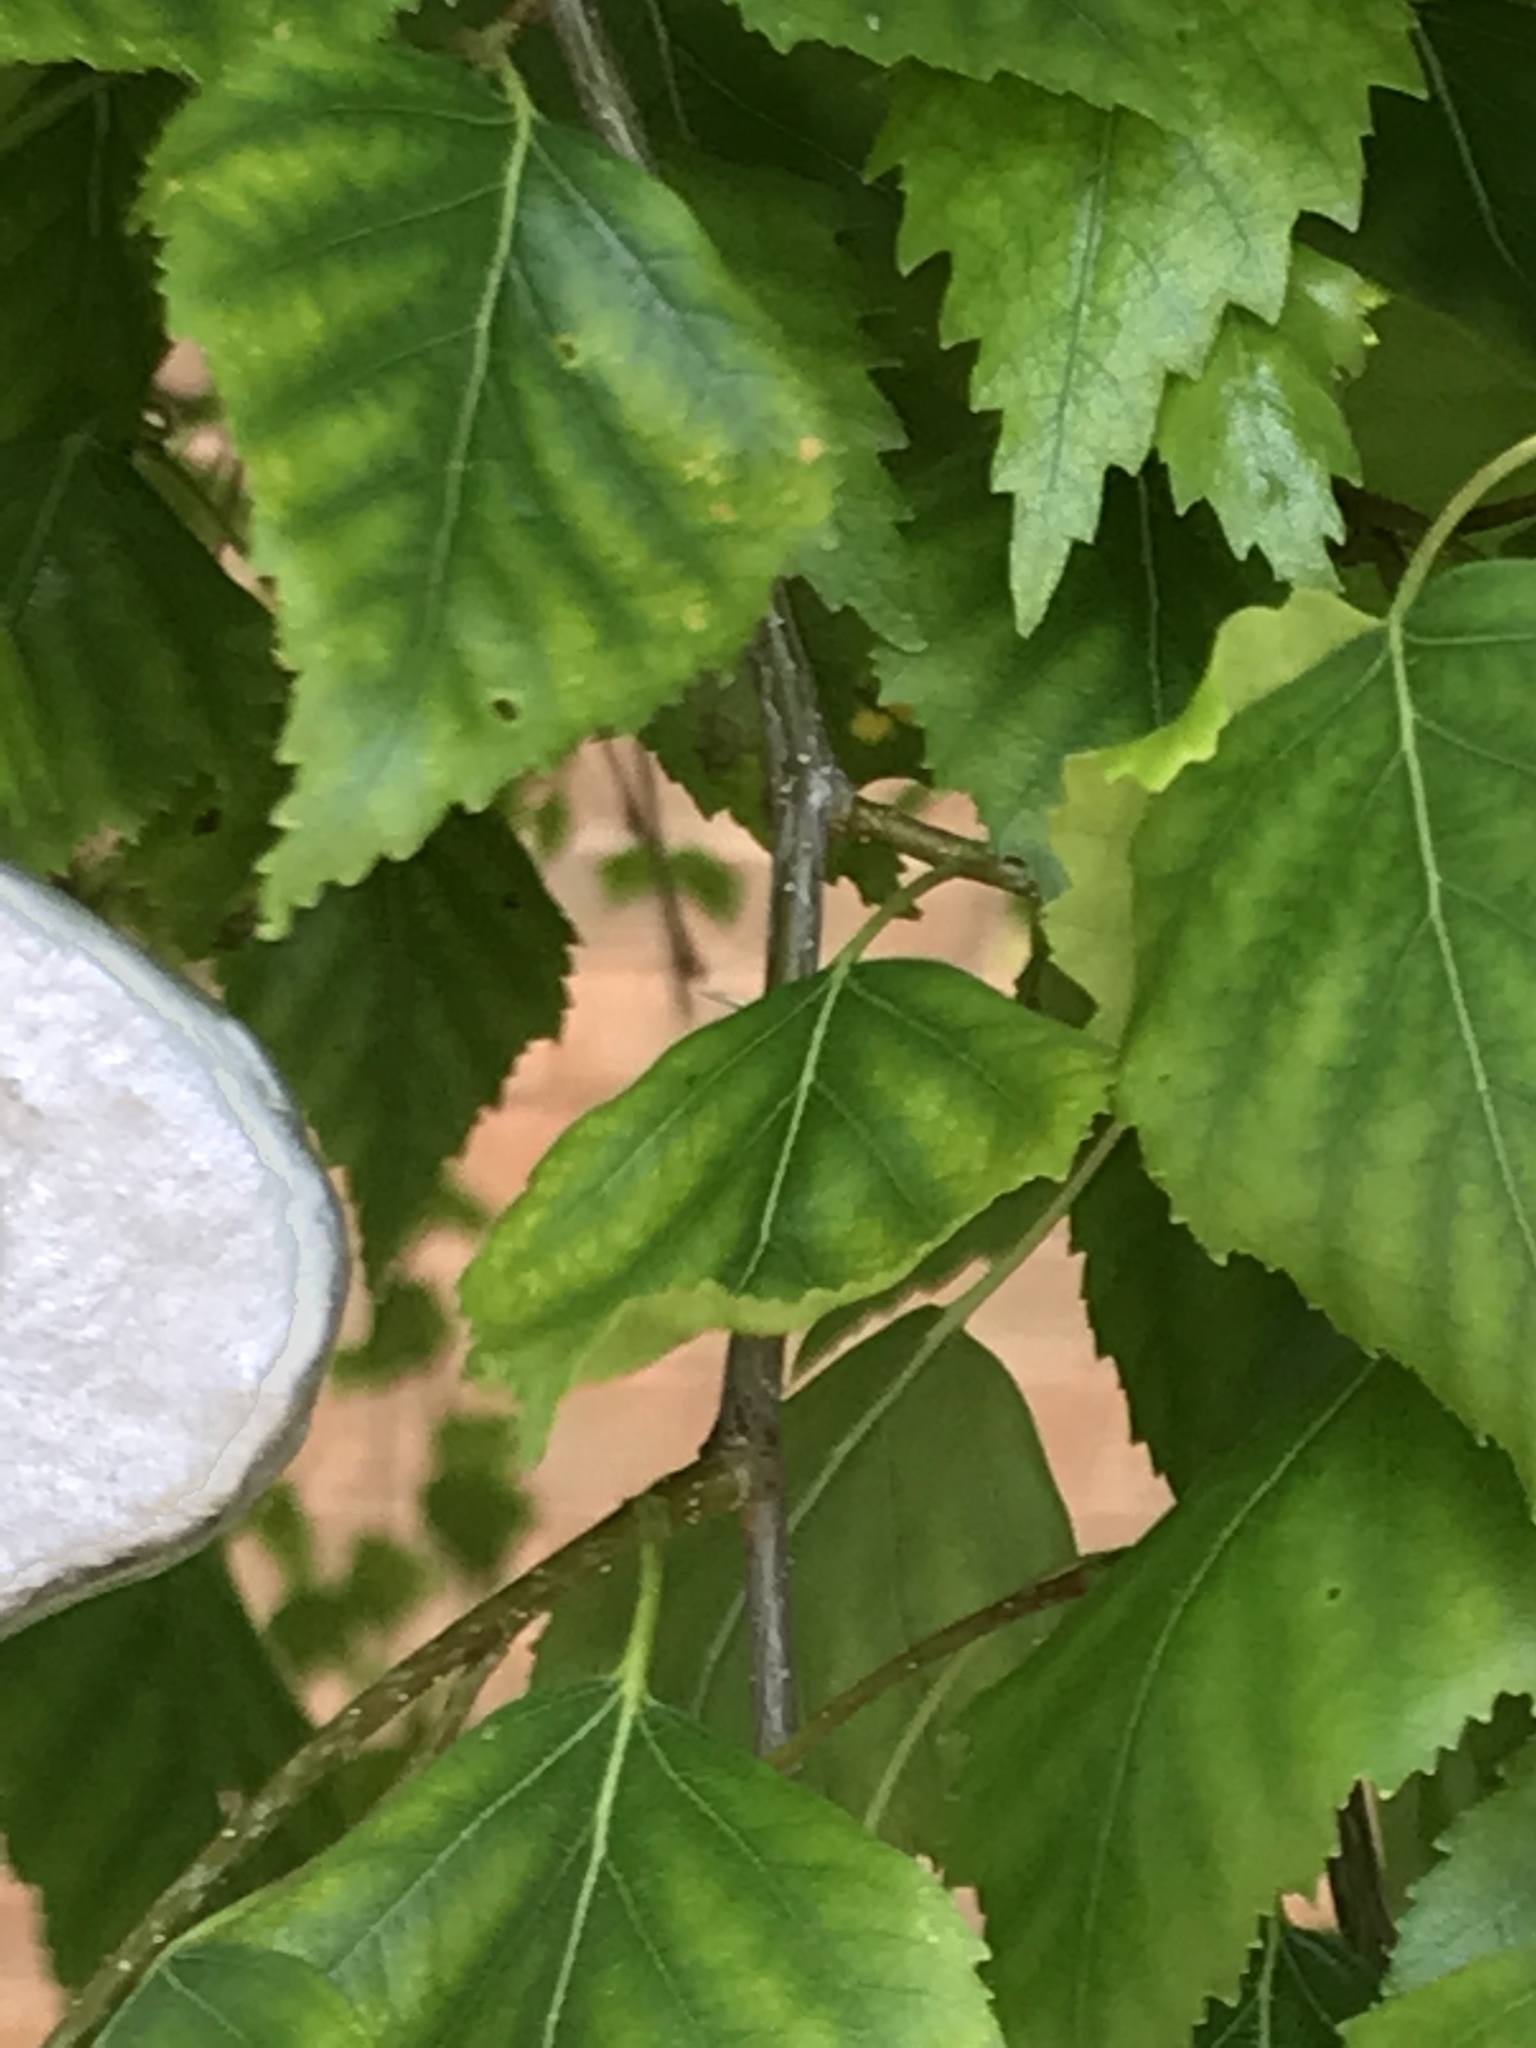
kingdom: Plantae
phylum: Tracheophyta
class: Magnoliopsida
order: Fagales
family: Betulaceae
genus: Betula
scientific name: Betula pendula
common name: Silver birch
